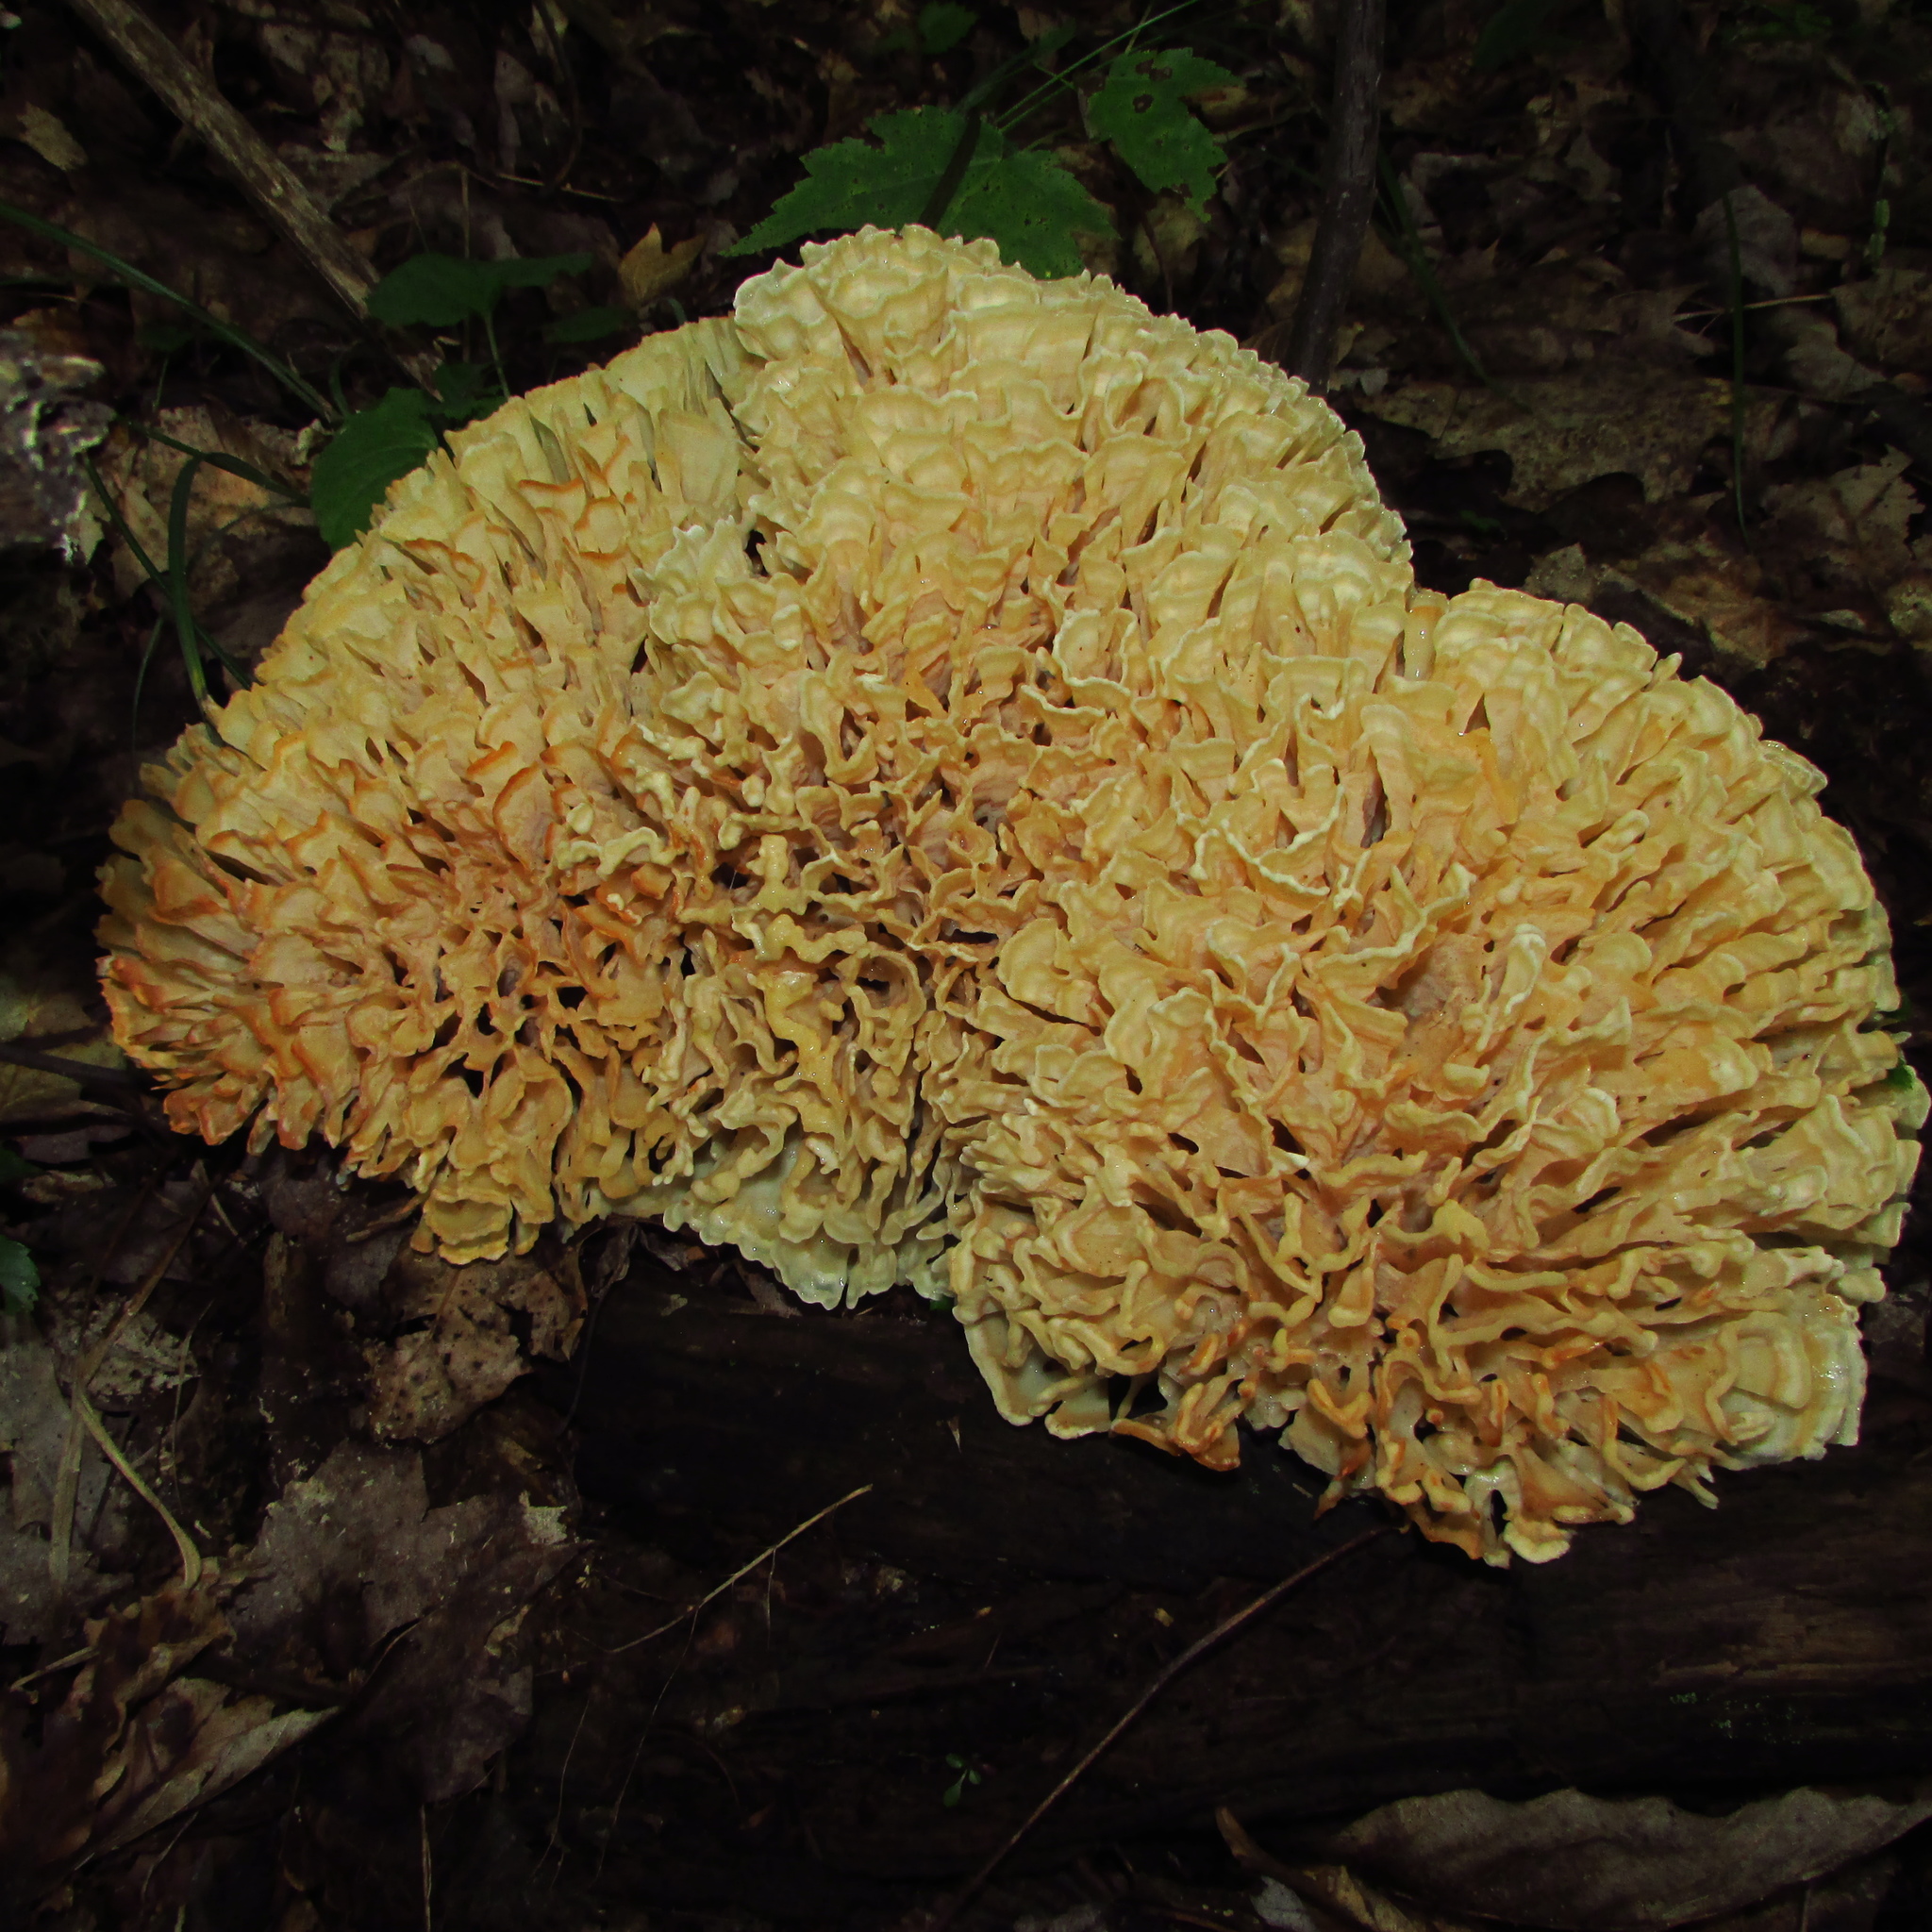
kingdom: Fungi
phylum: Basidiomycota
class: Agaricomycetes
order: Polyporales
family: Sparassidaceae
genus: Sparassis
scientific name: Sparassis spathulata
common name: Eastern cauliflower mushroom
